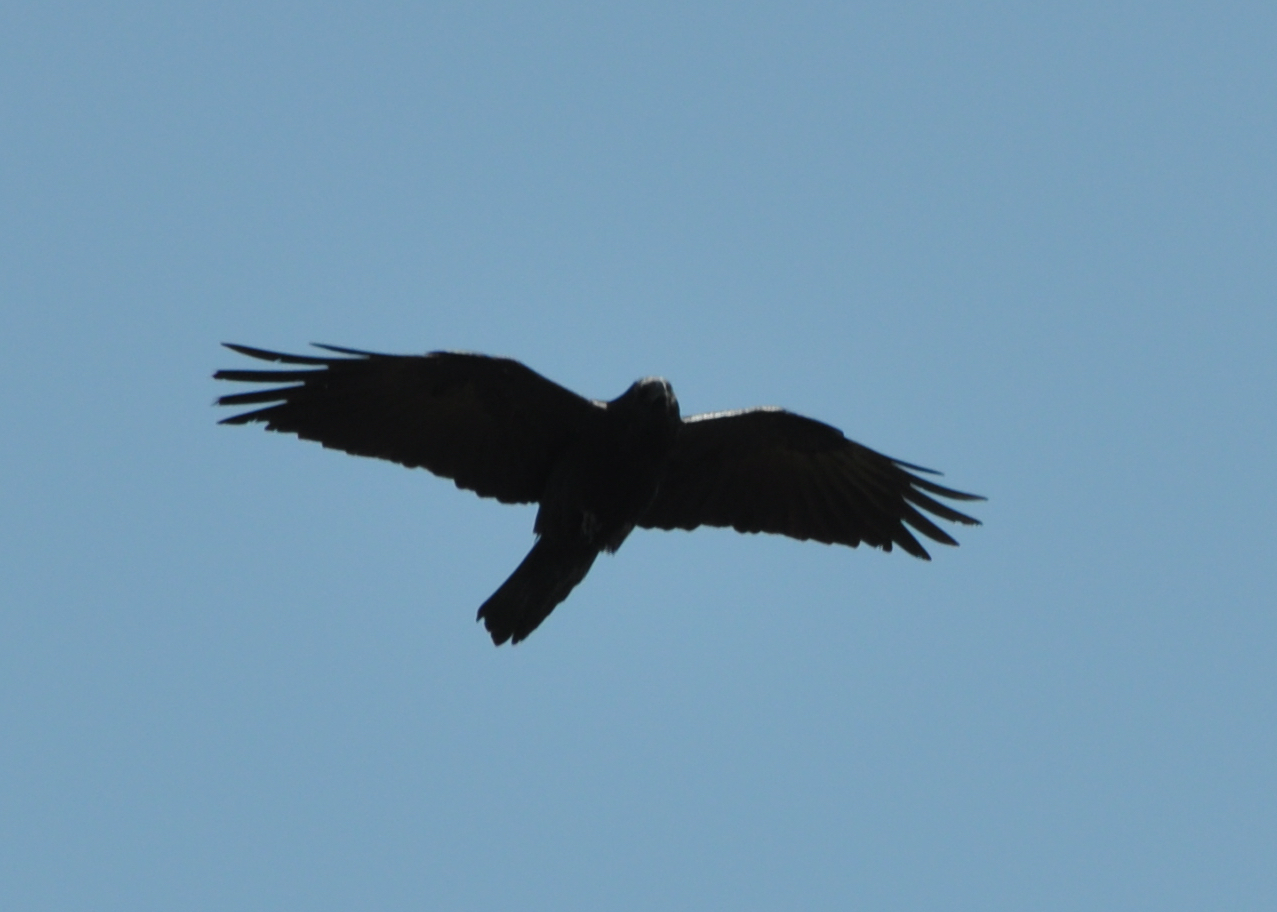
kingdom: Animalia
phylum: Chordata
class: Aves
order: Passeriformes
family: Corvidae
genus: Corvus
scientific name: Corvus corax
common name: Common raven
